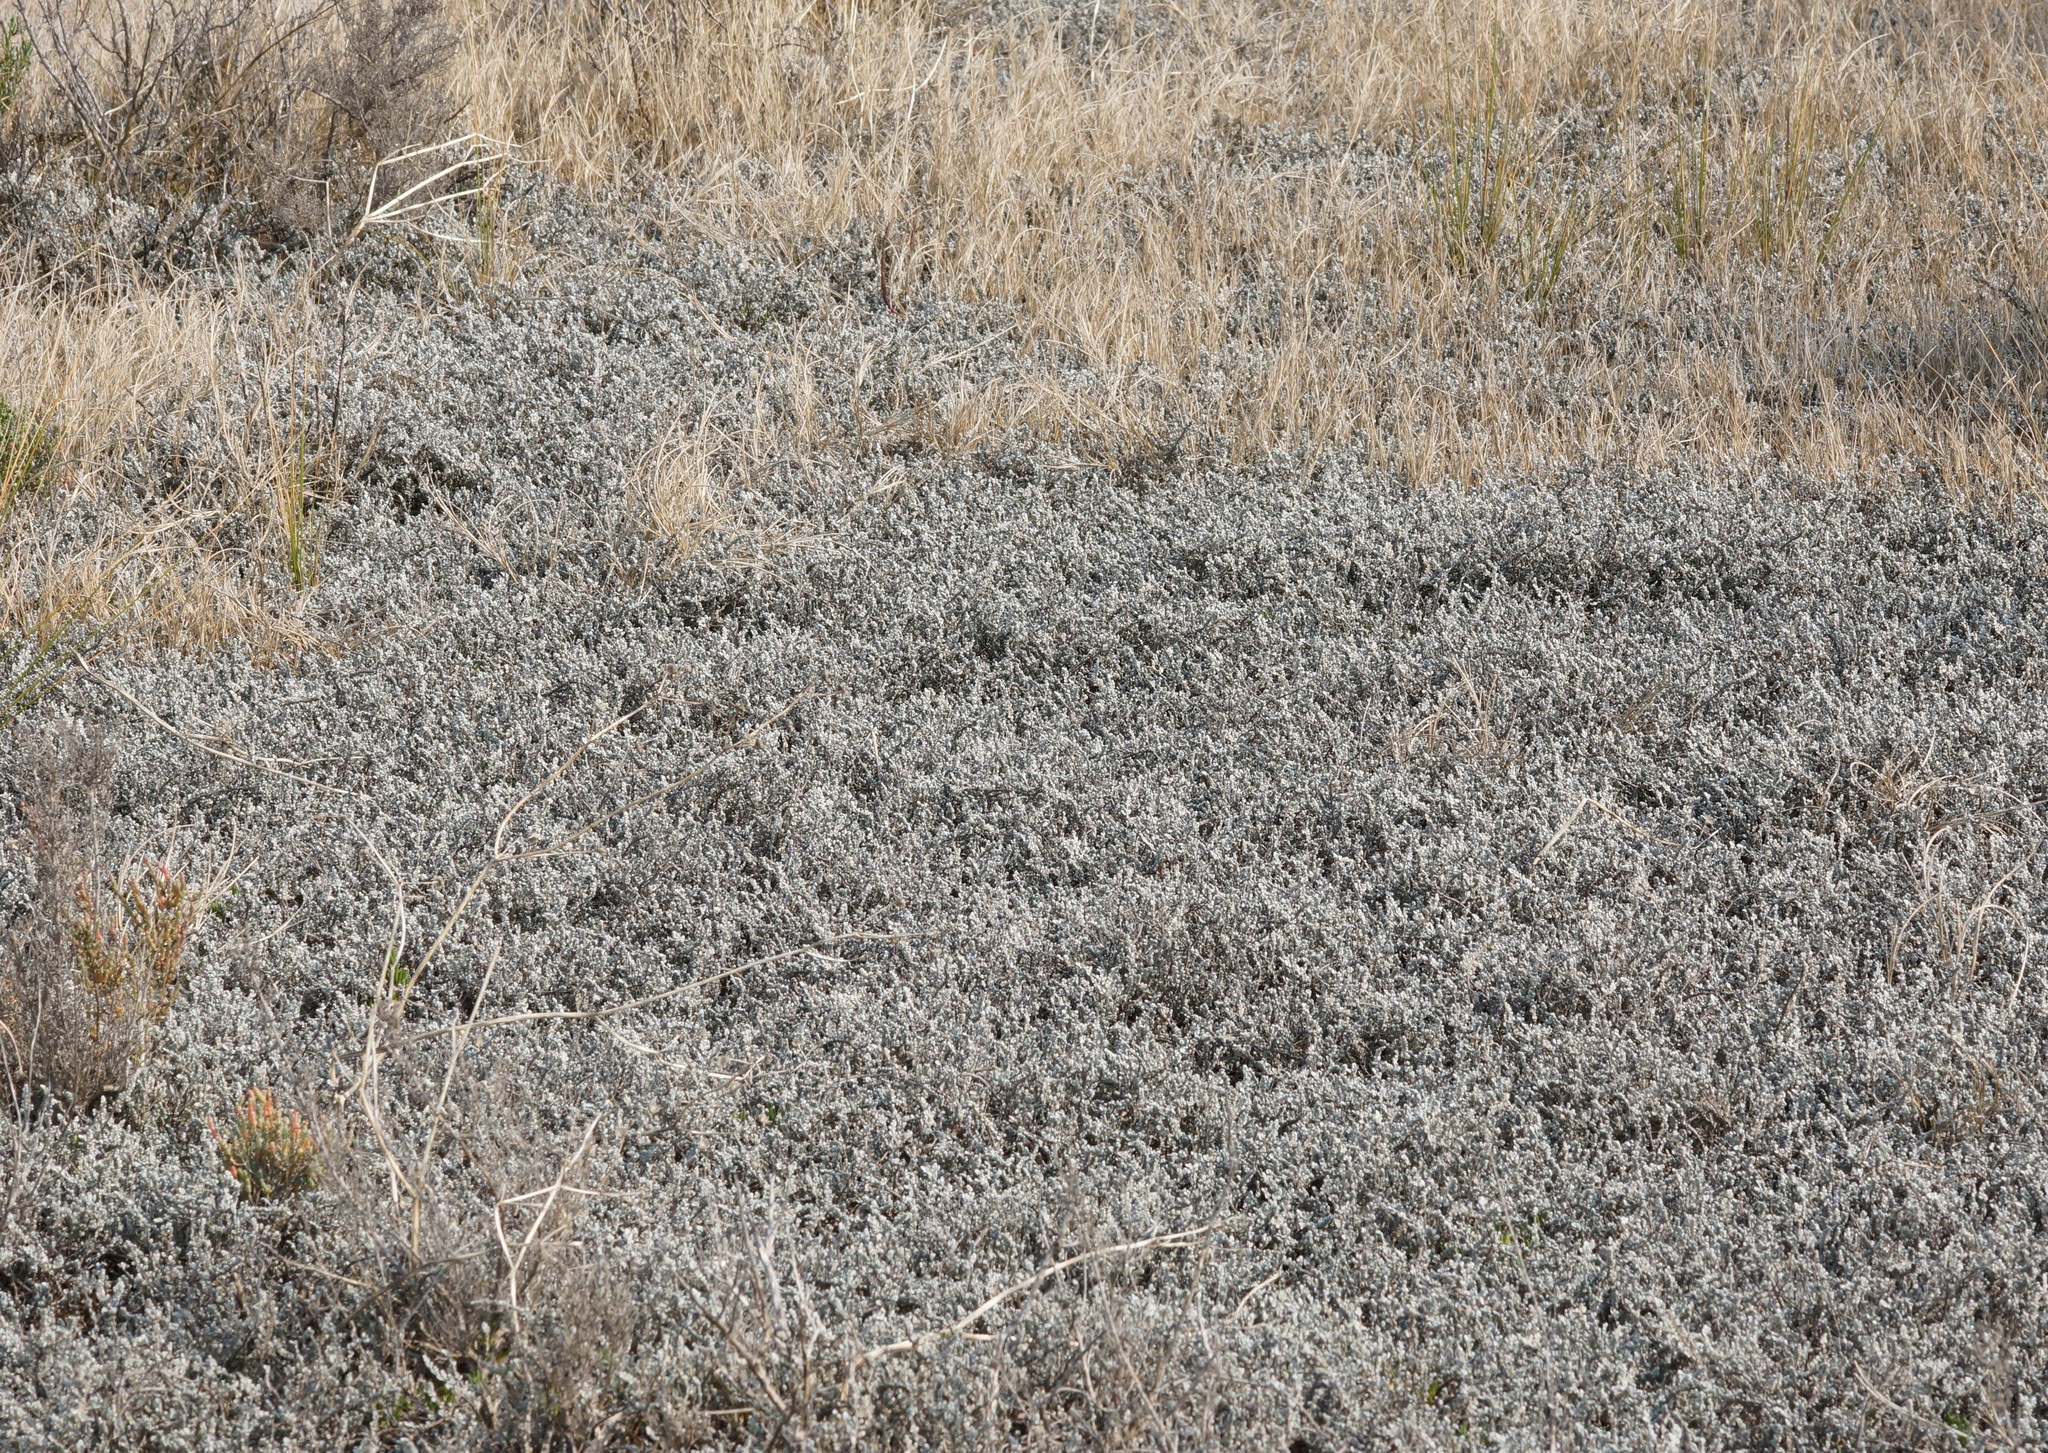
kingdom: Plantae
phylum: Tracheophyta
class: Magnoliopsida
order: Solanales
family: Convolvulaceae
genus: Wilsonia
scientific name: Wilsonia humilis
